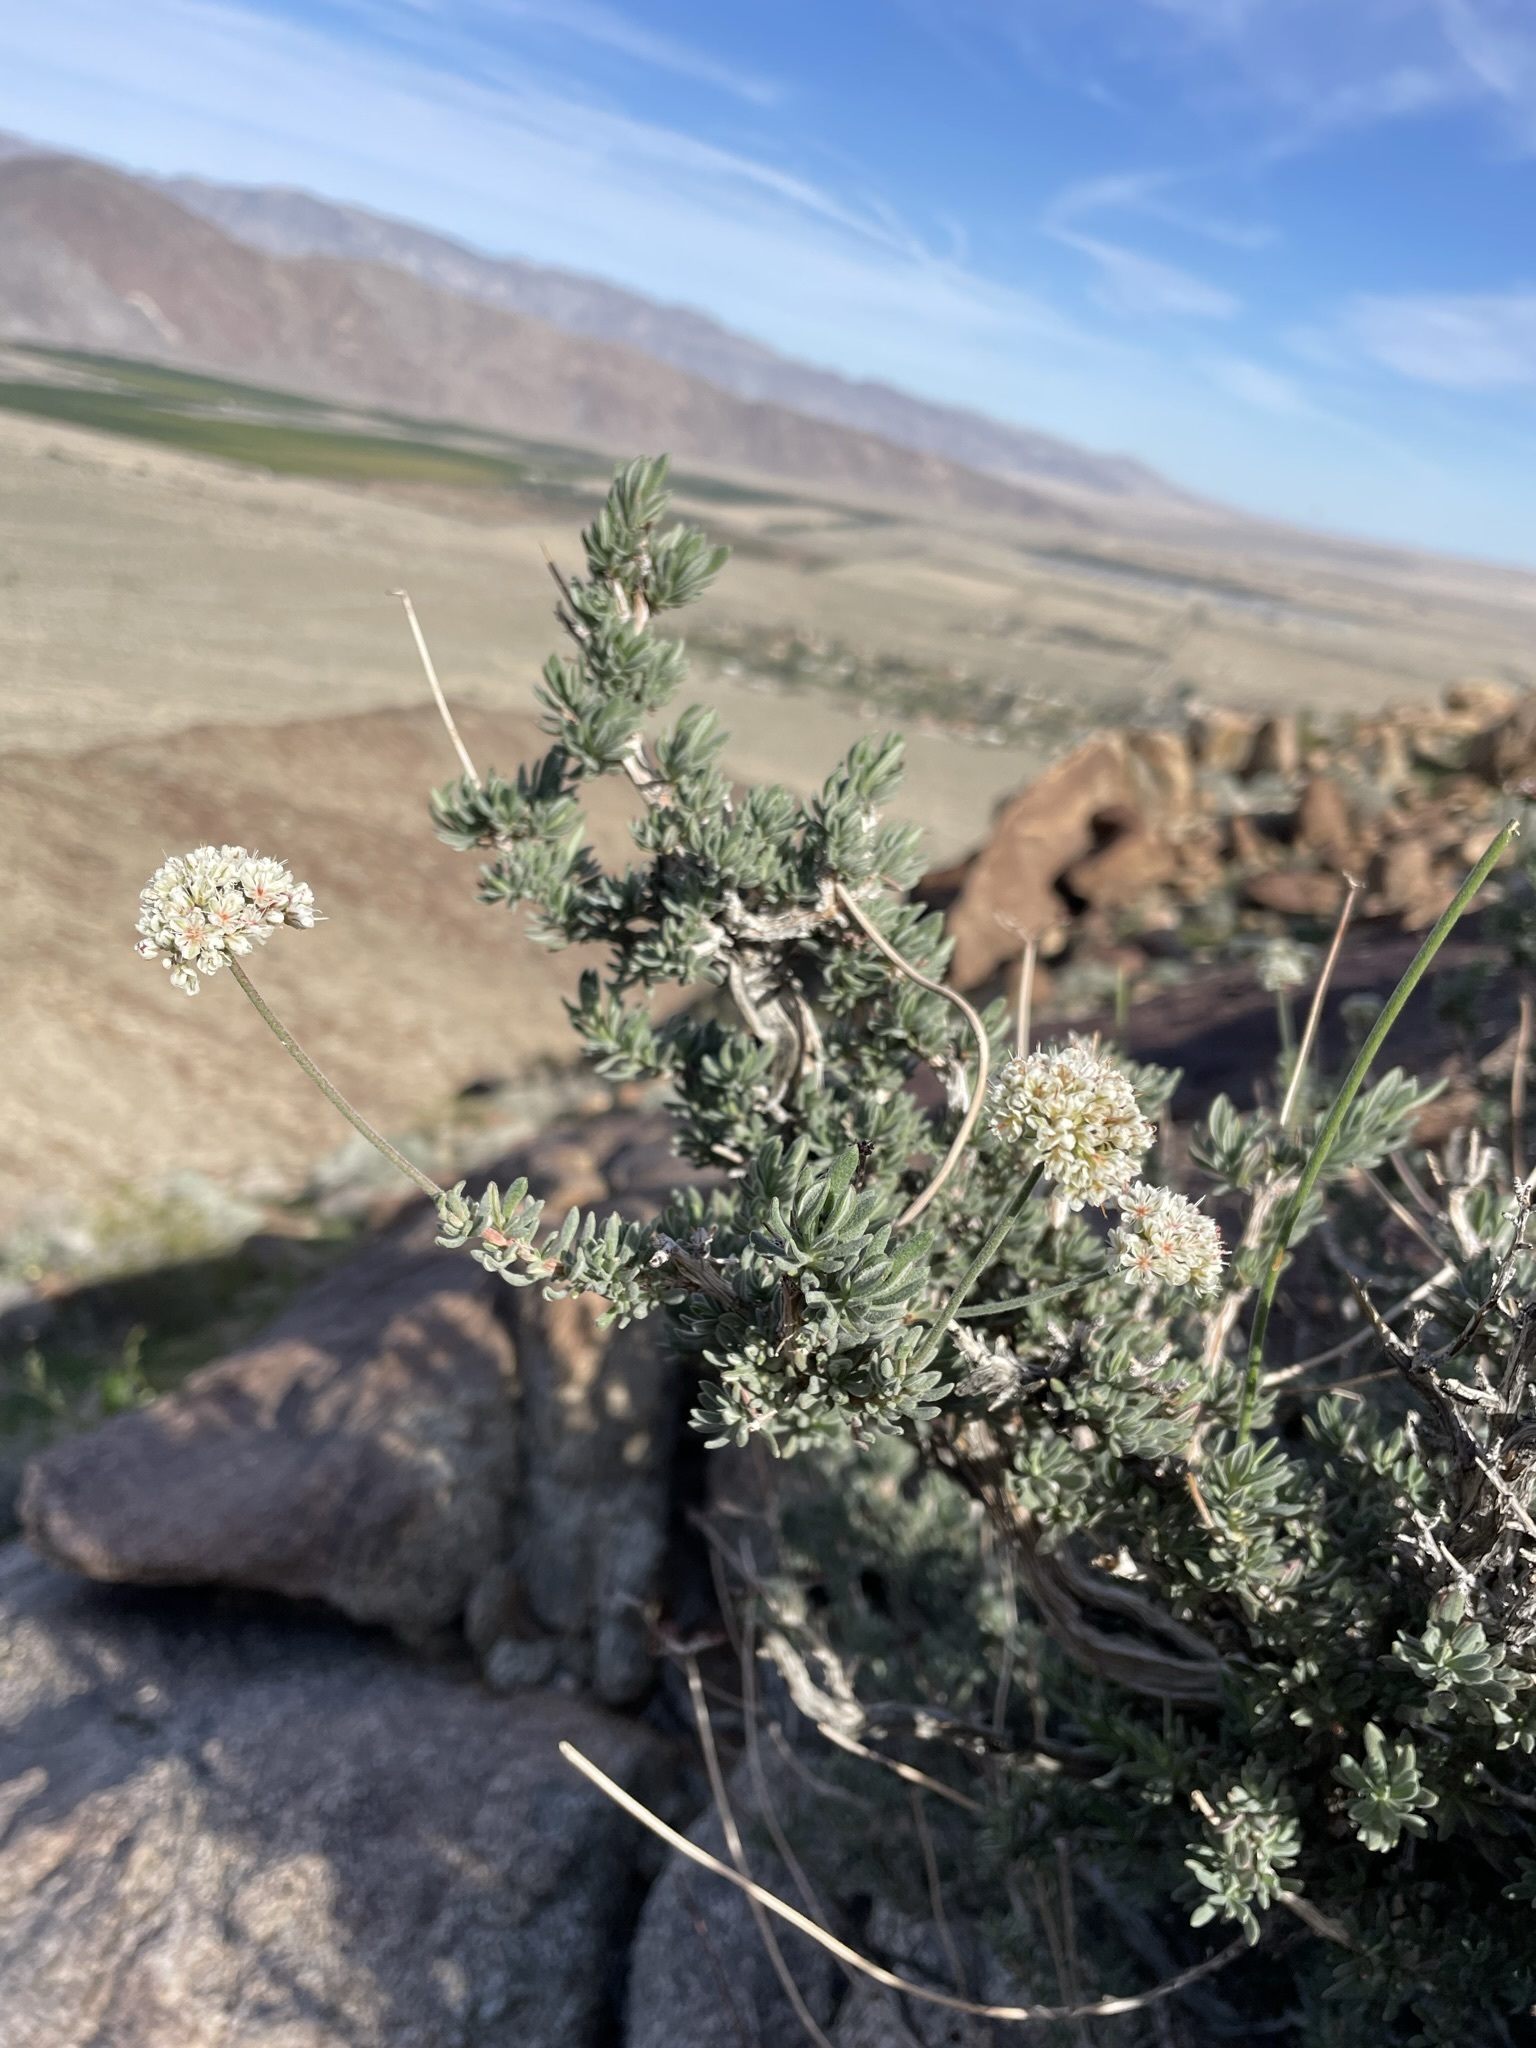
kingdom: Plantae
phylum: Tracheophyta
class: Magnoliopsida
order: Caryophyllales
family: Polygonaceae
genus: Eriogonum
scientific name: Eriogonum fasciculatum
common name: California wild buckwheat
